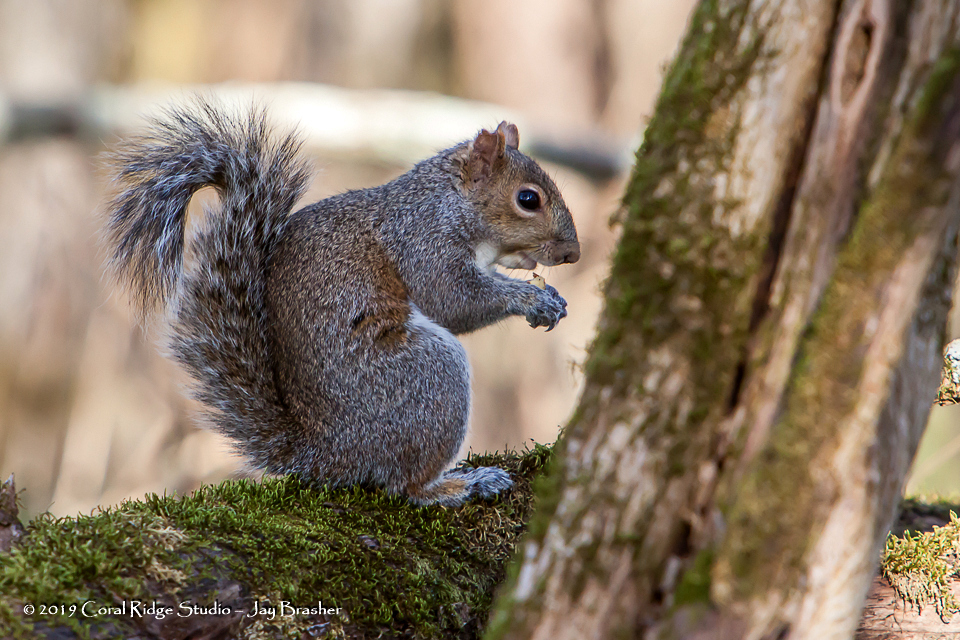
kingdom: Animalia
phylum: Chordata
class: Mammalia
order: Rodentia
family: Sciuridae
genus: Sciurus
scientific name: Sciurus carolinensis
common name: Eastern gray squirrel
